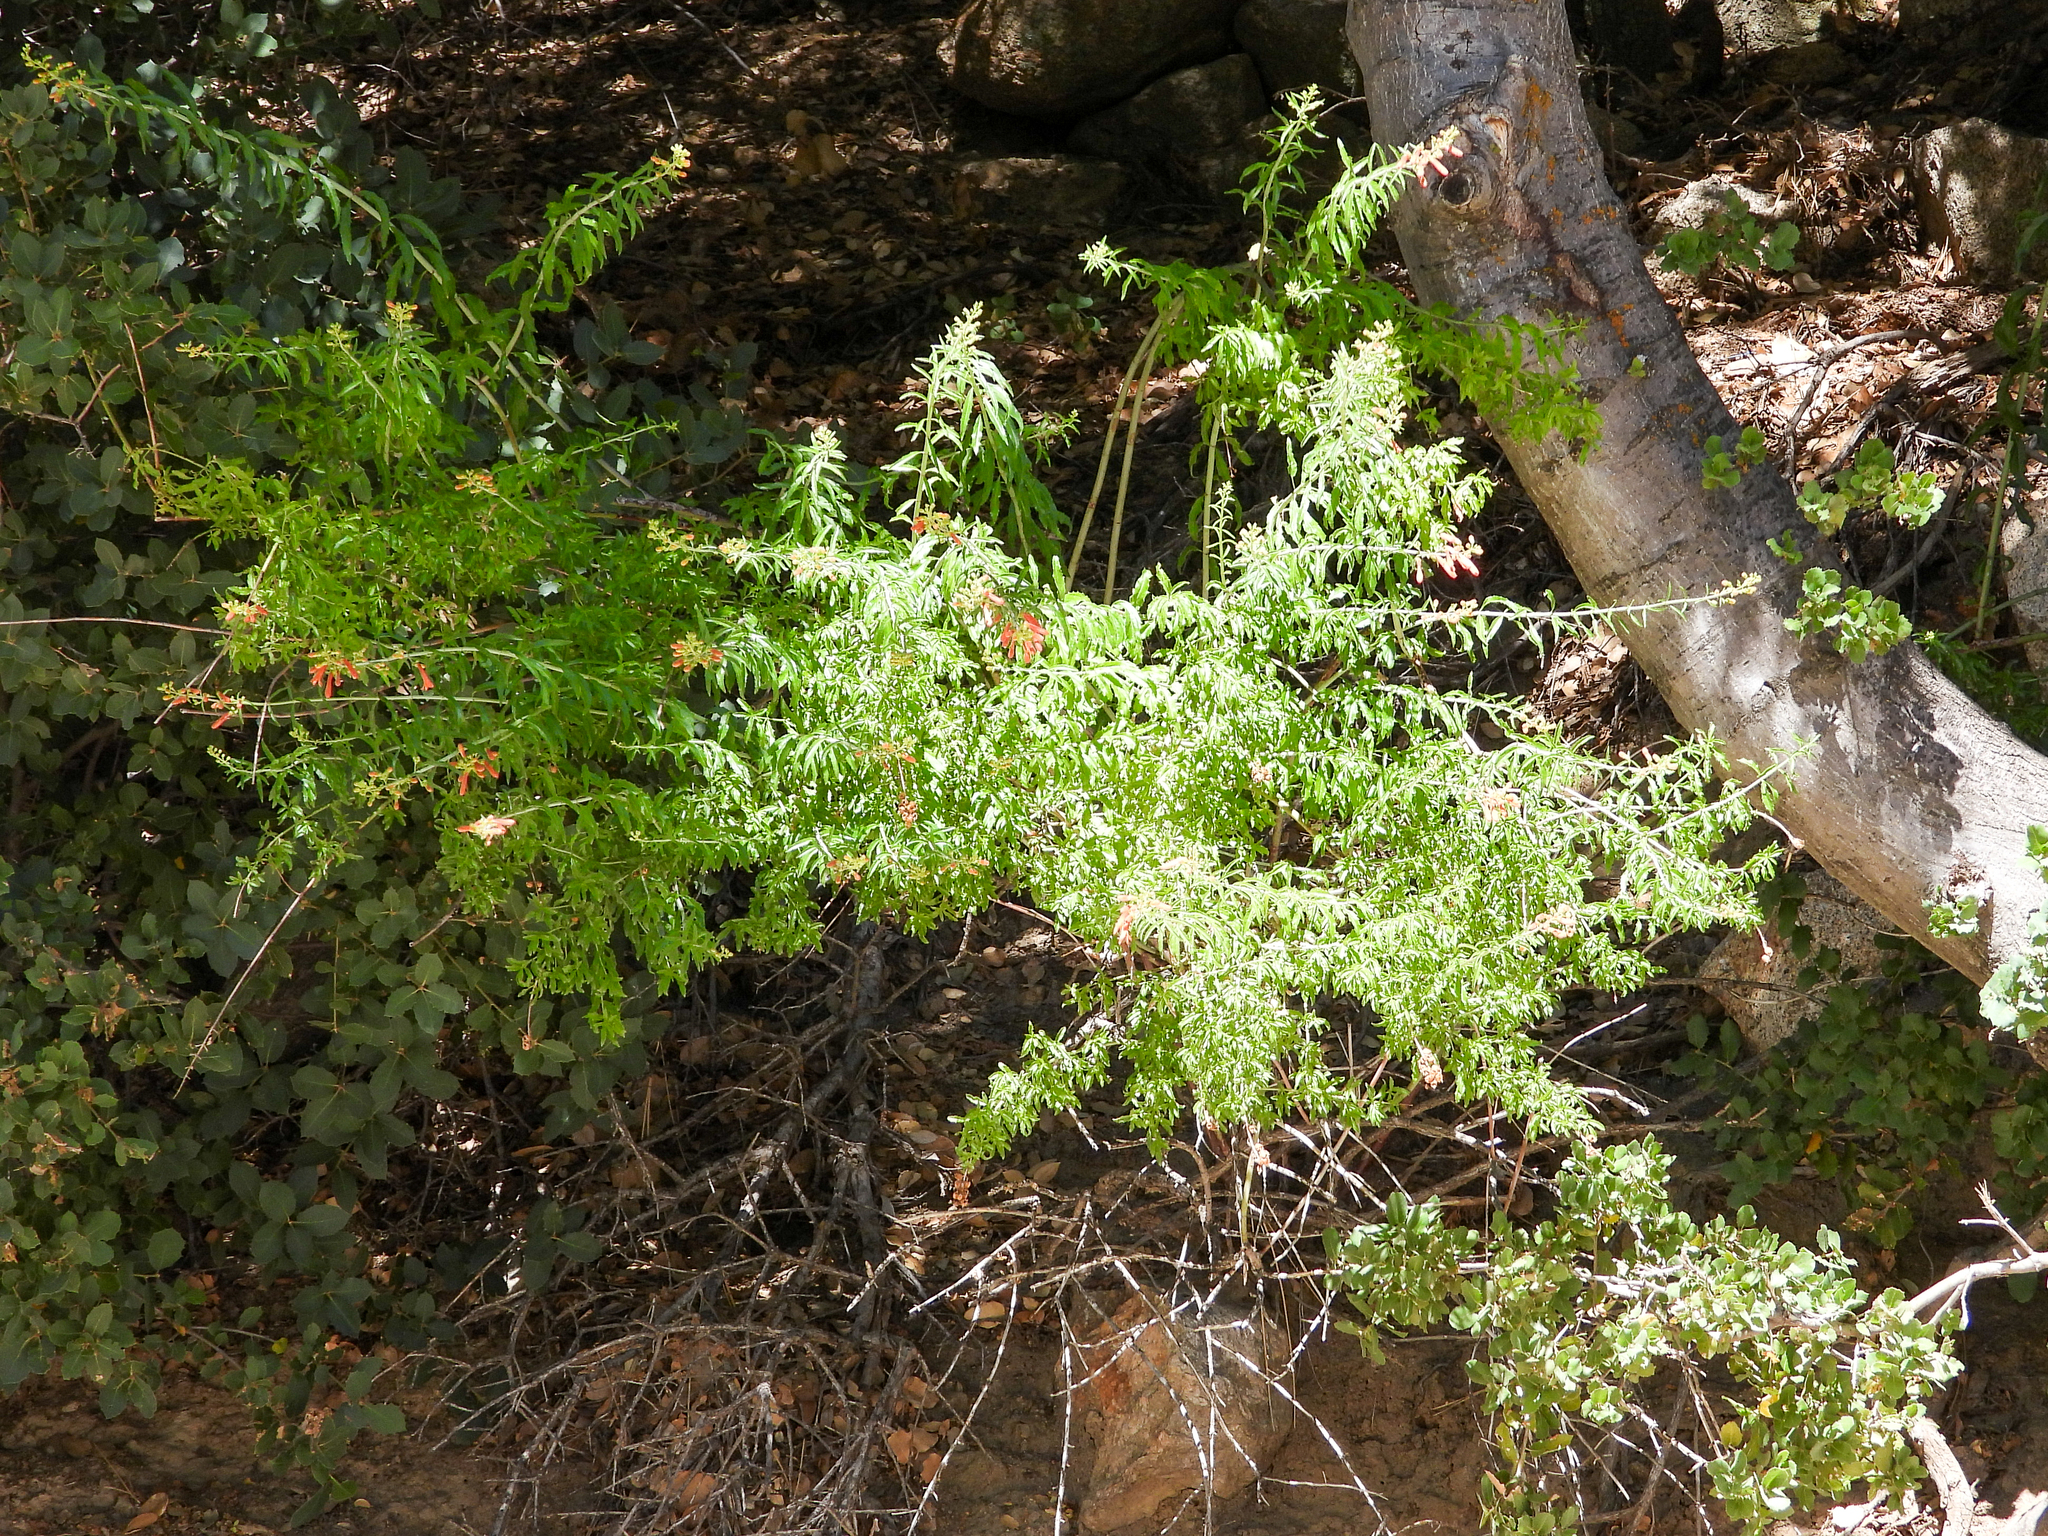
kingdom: Plantae
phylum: Tracheophyta
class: Magnoliopsida
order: Lamiales
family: Plantaginaceae
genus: Keckiella
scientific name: Keckiella ternata
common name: Scarlet keckiella
